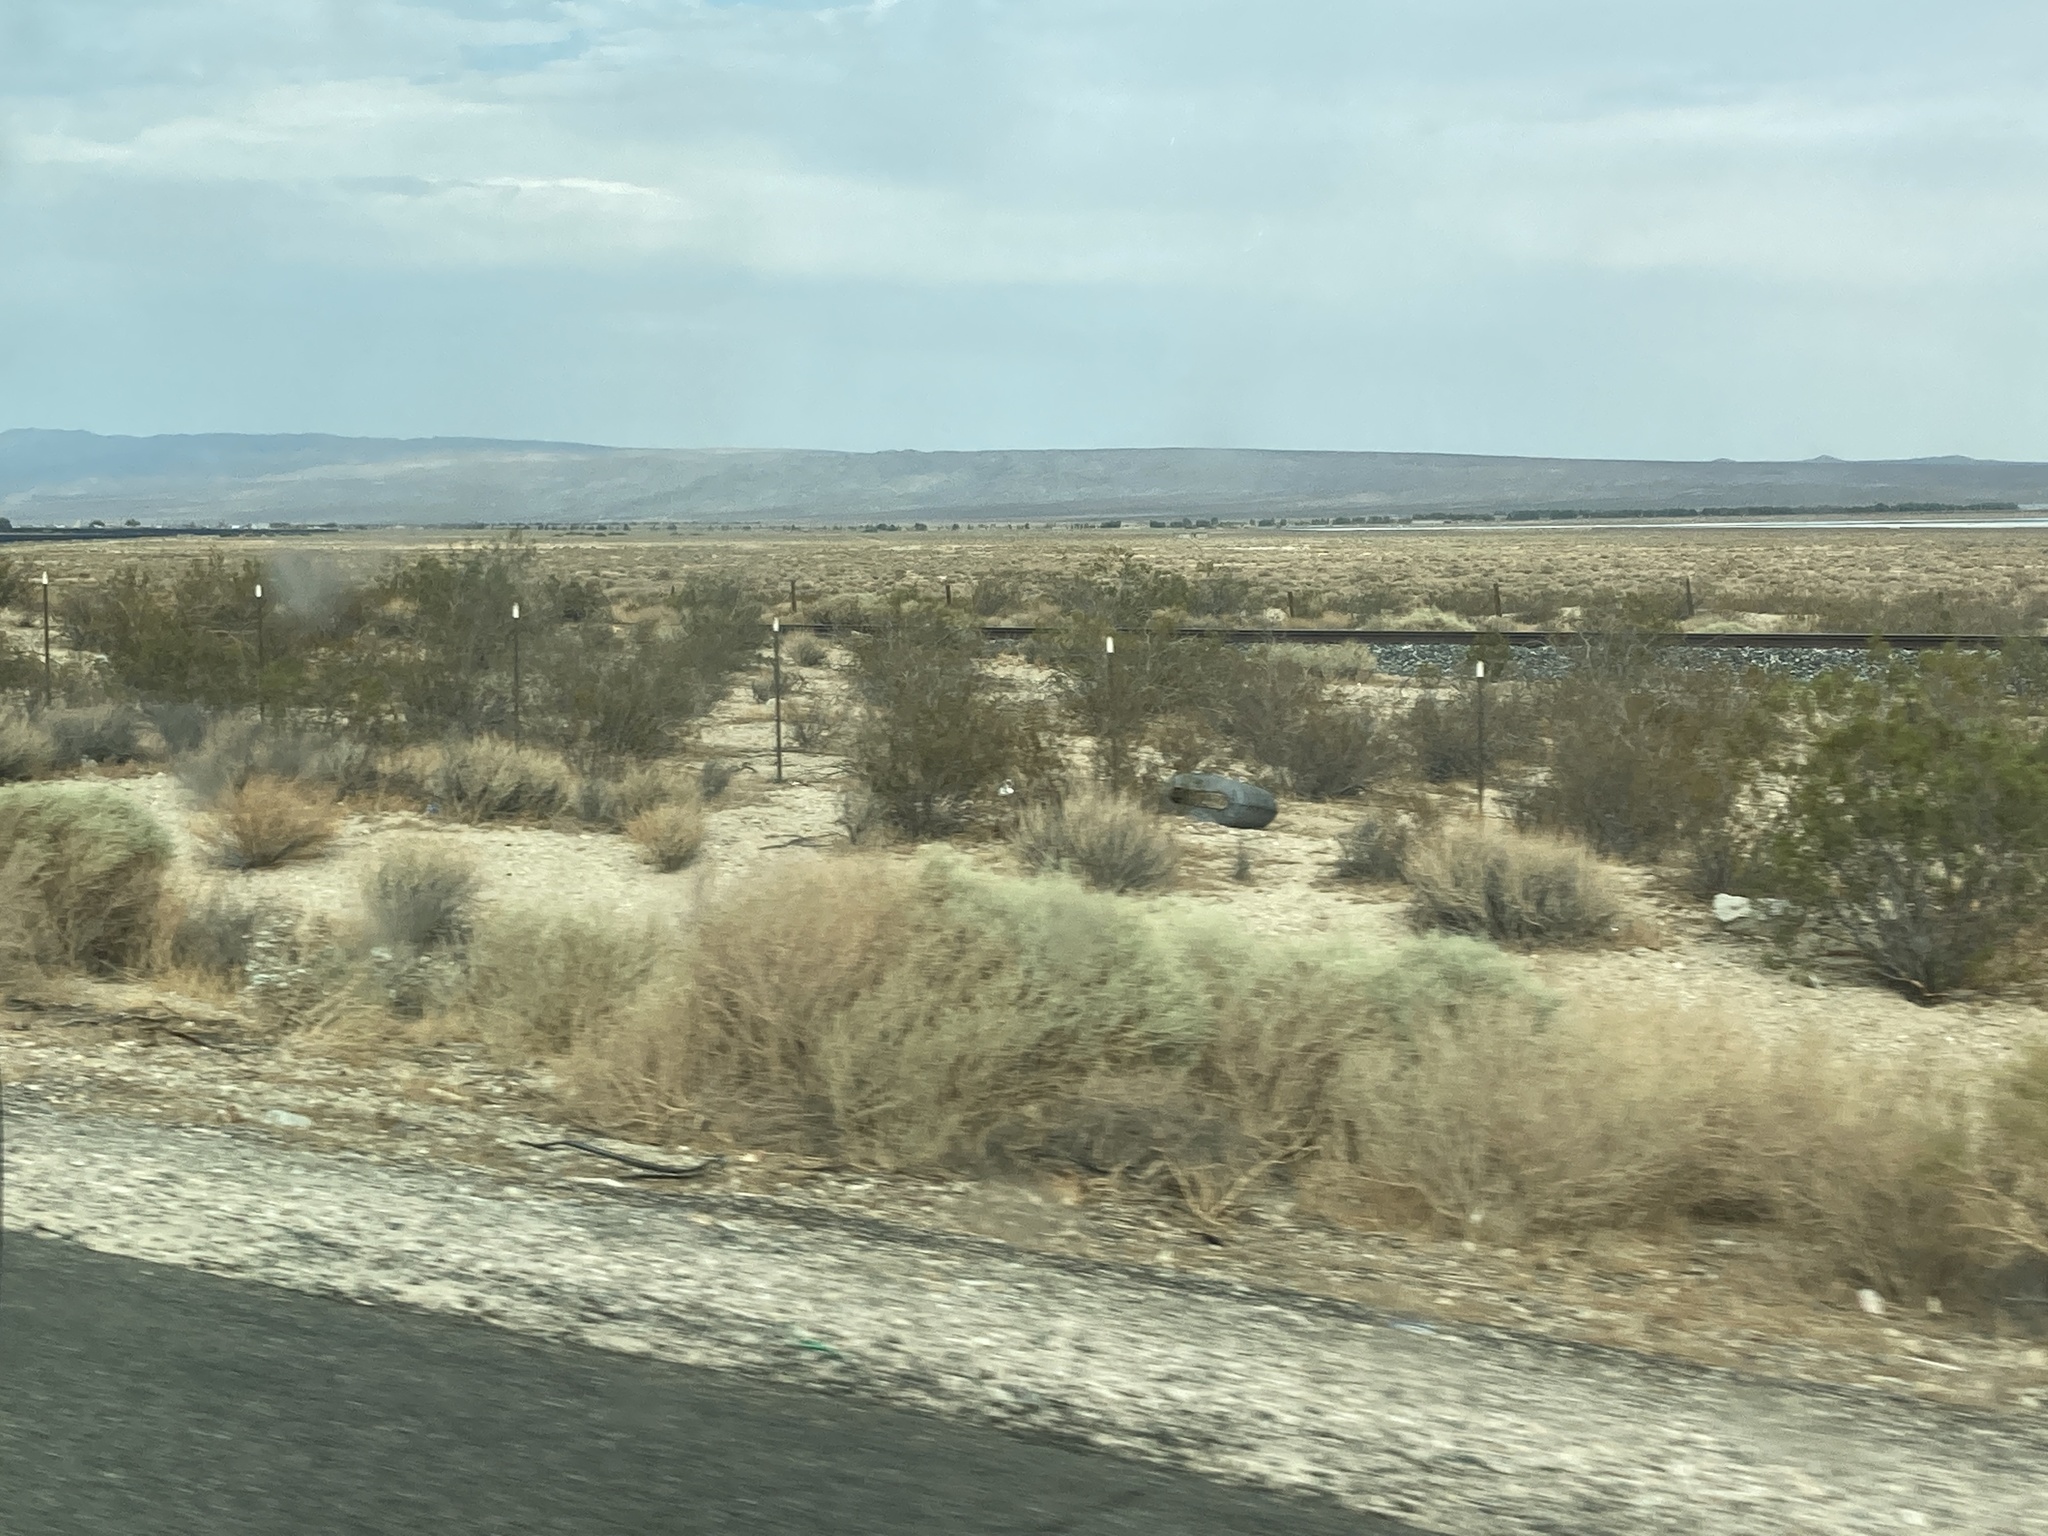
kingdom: Plantae
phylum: Tracheophyta
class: Magnoliopsida
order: Zygophyllales
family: Zygophyllaceae
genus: Larrea
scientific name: Larrea tridentata
